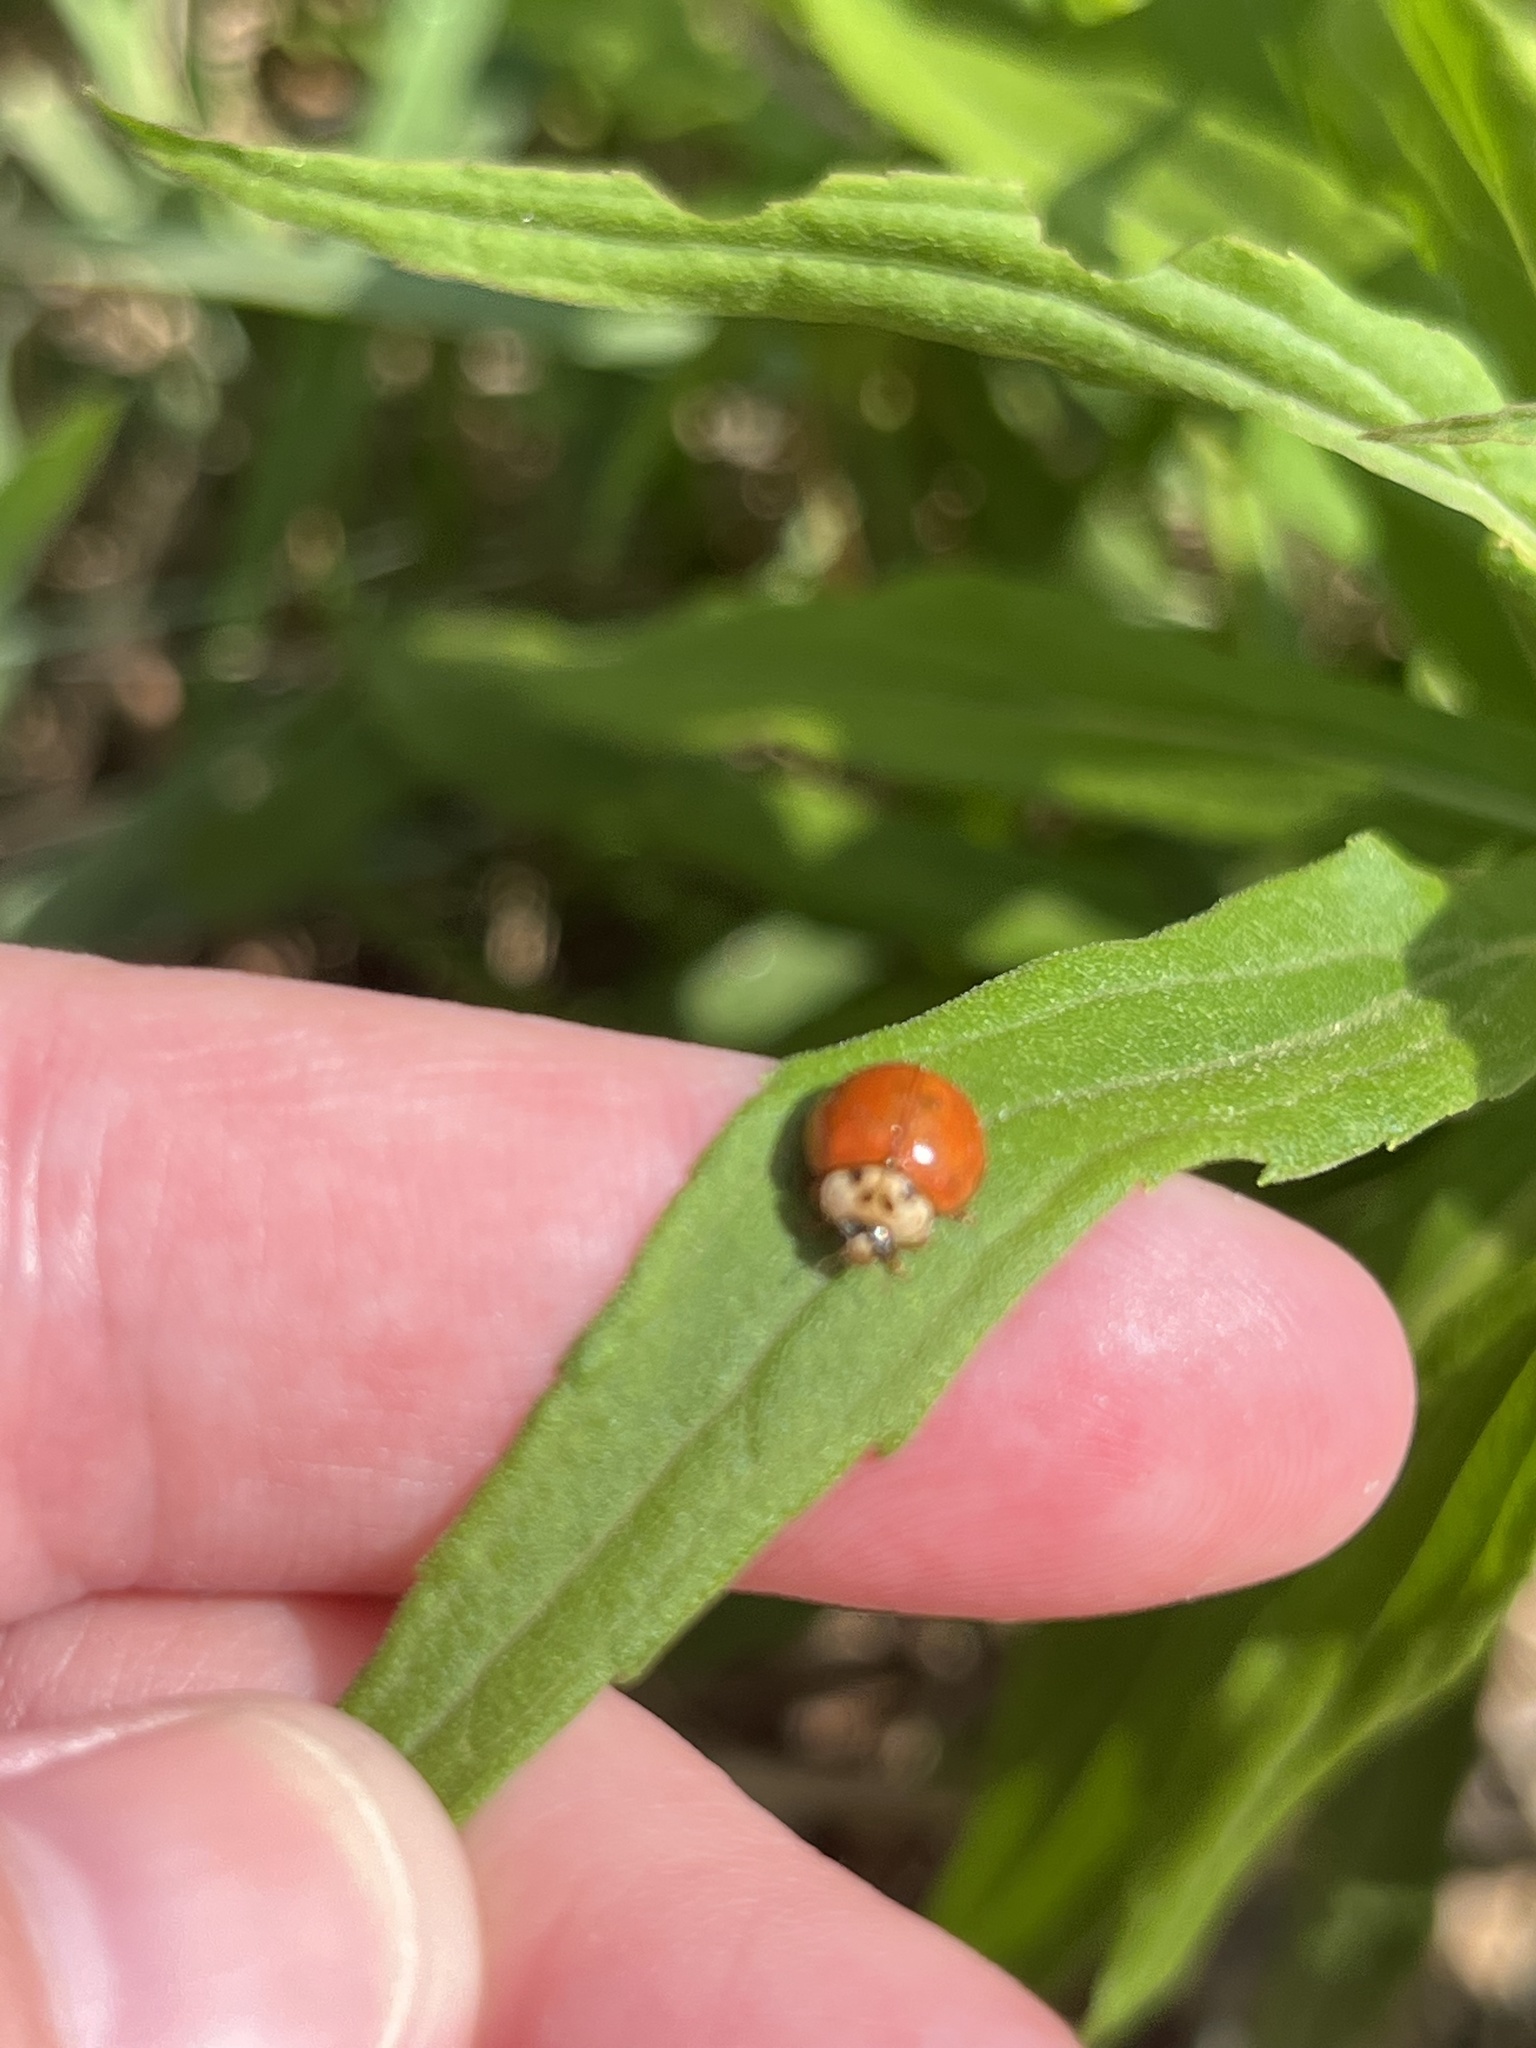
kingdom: Animalia
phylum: Arthropoda
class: Insecta
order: Coleoptera
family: Coccinellidae
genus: Harmonia
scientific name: Harmonia axyridis
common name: Harlequin ladybird
